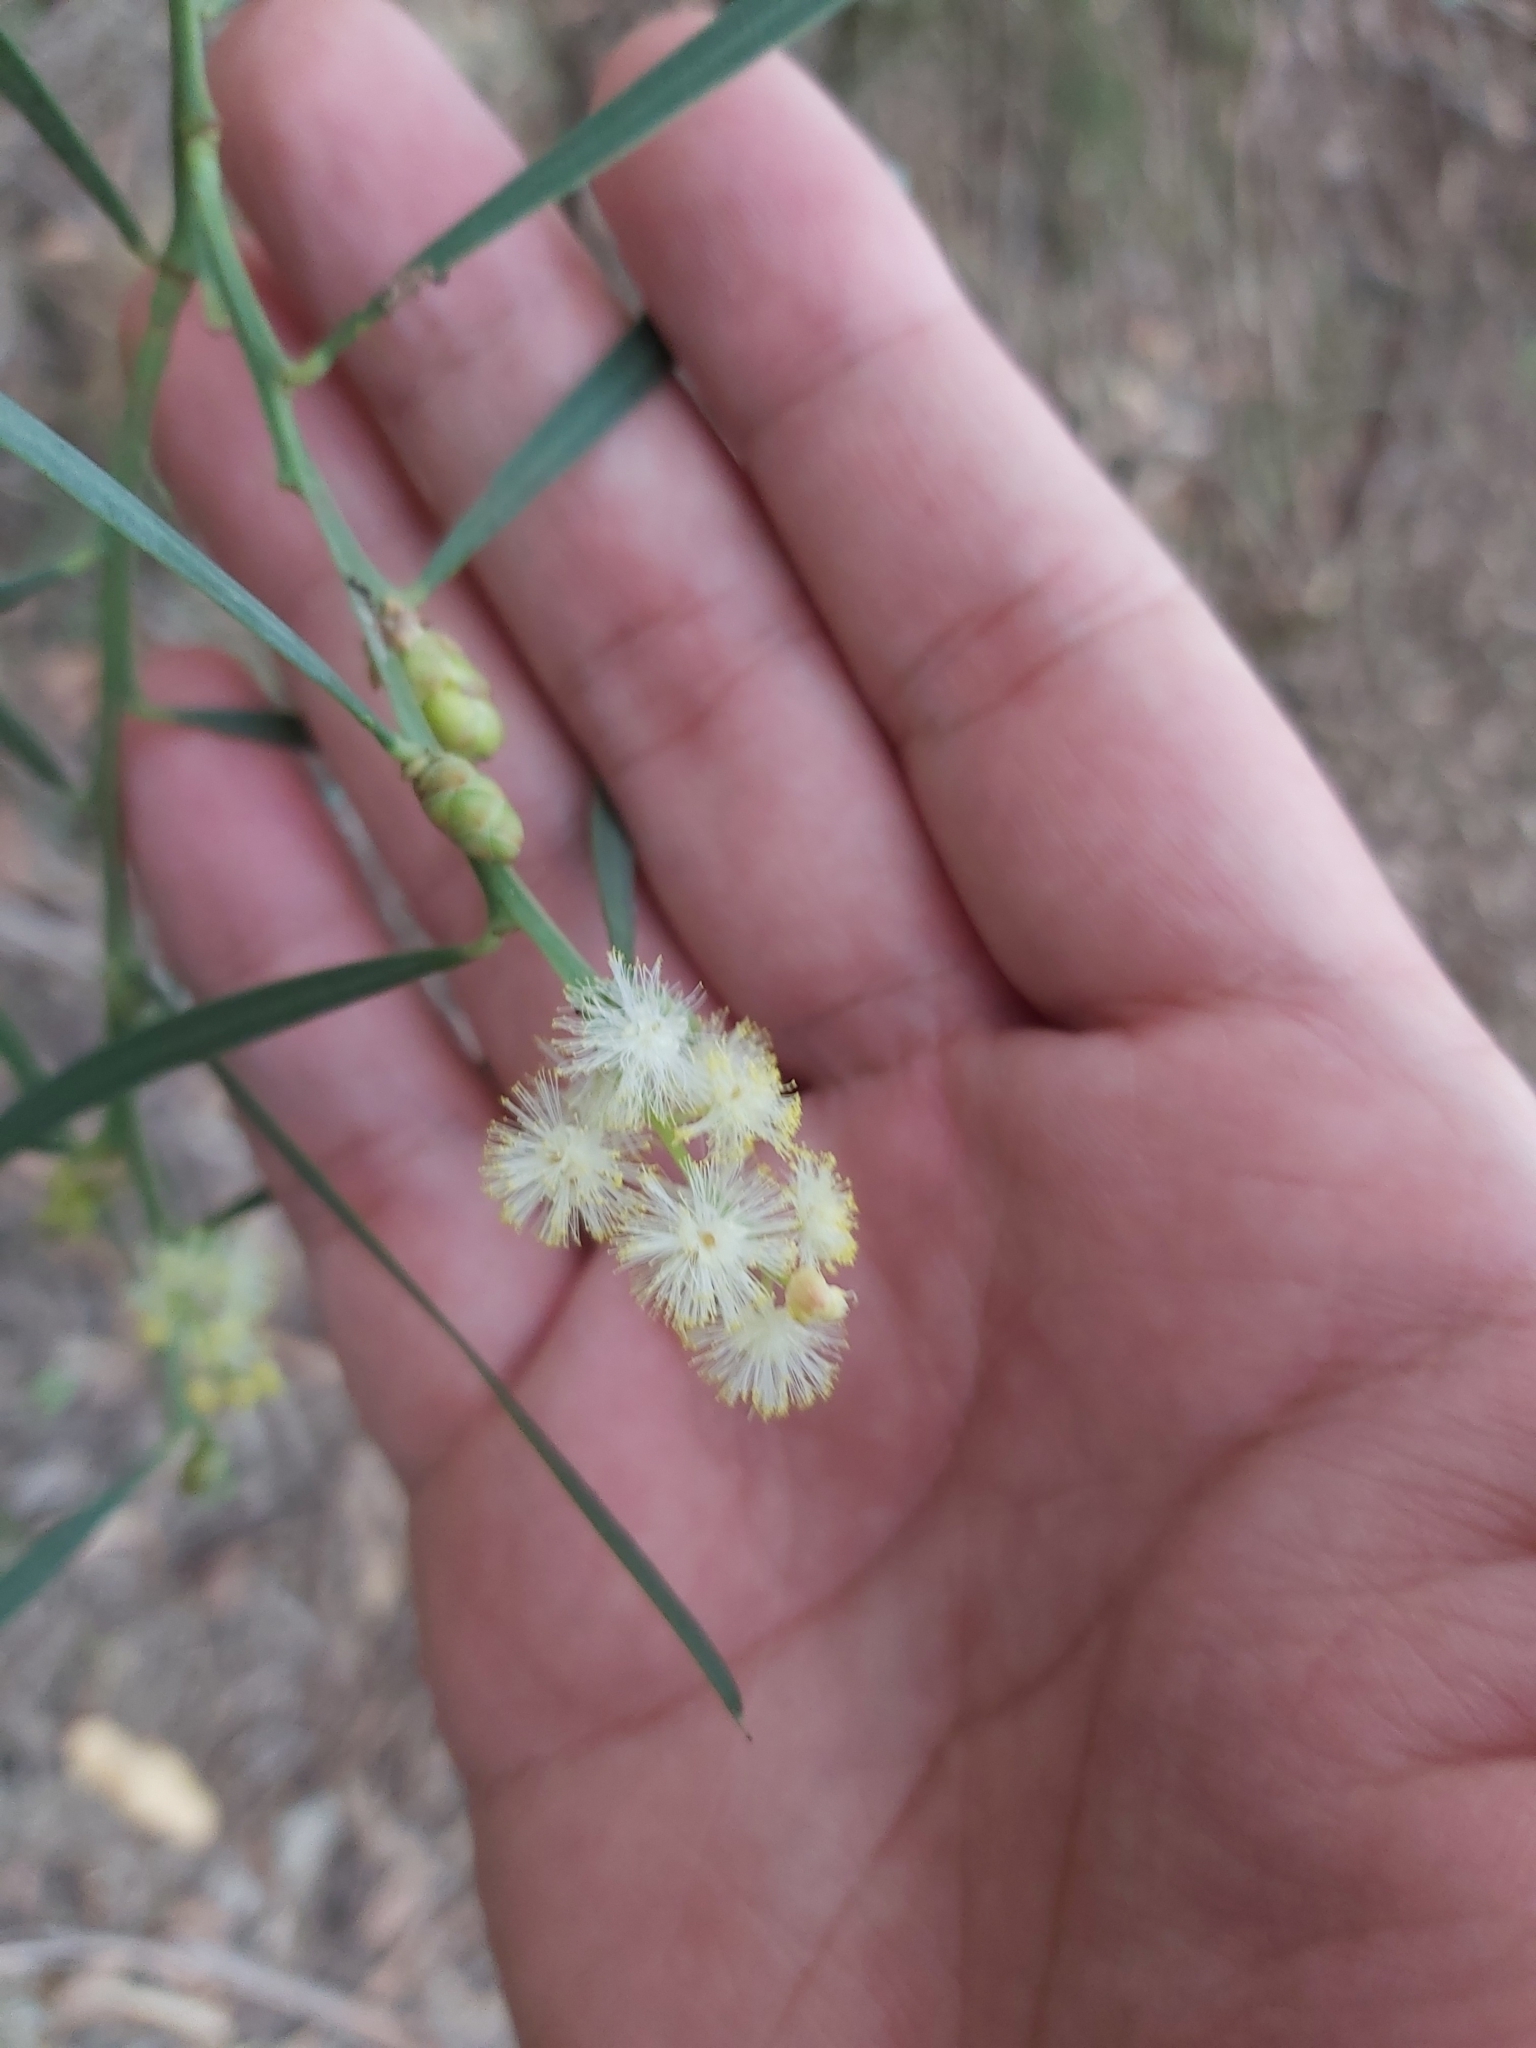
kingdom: Plantae
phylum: Tracheophyta
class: Magnoliopsida
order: Fabales
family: Fabaceae
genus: Acacia
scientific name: Acacia suaveolens
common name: Sweet acacia
